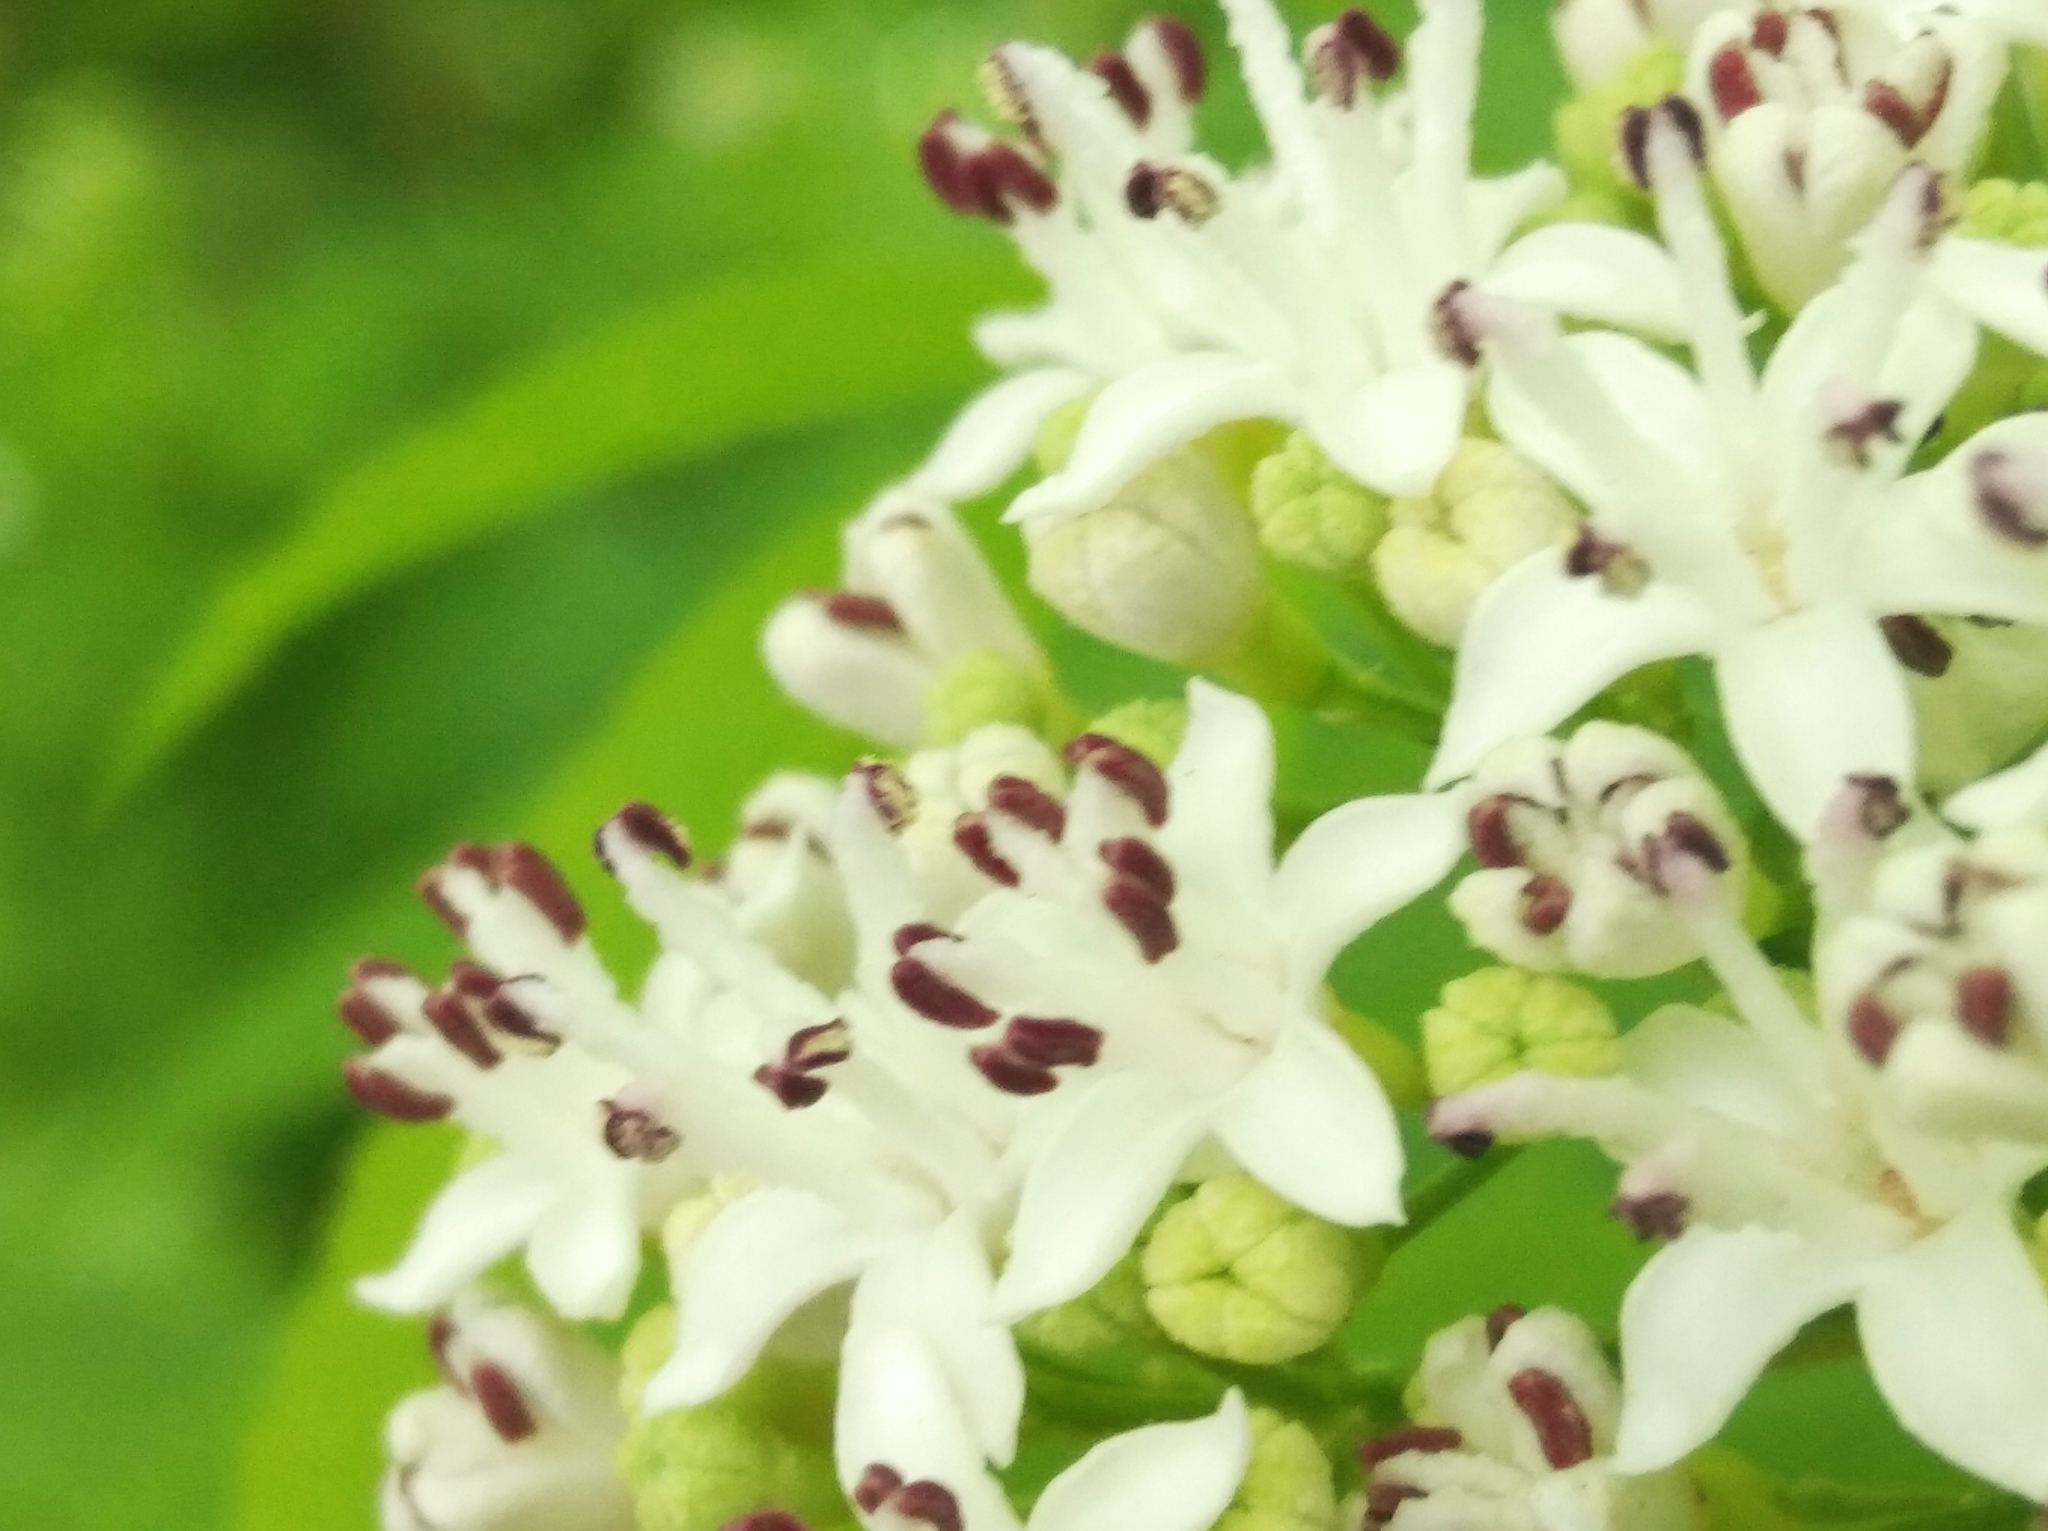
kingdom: Plantae
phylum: Tracheophyta
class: Magnoliopsida
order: Dipsacales
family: Viburnaceae
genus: Sambucus
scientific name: Sambucus ebulus
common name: Dwarf elder
